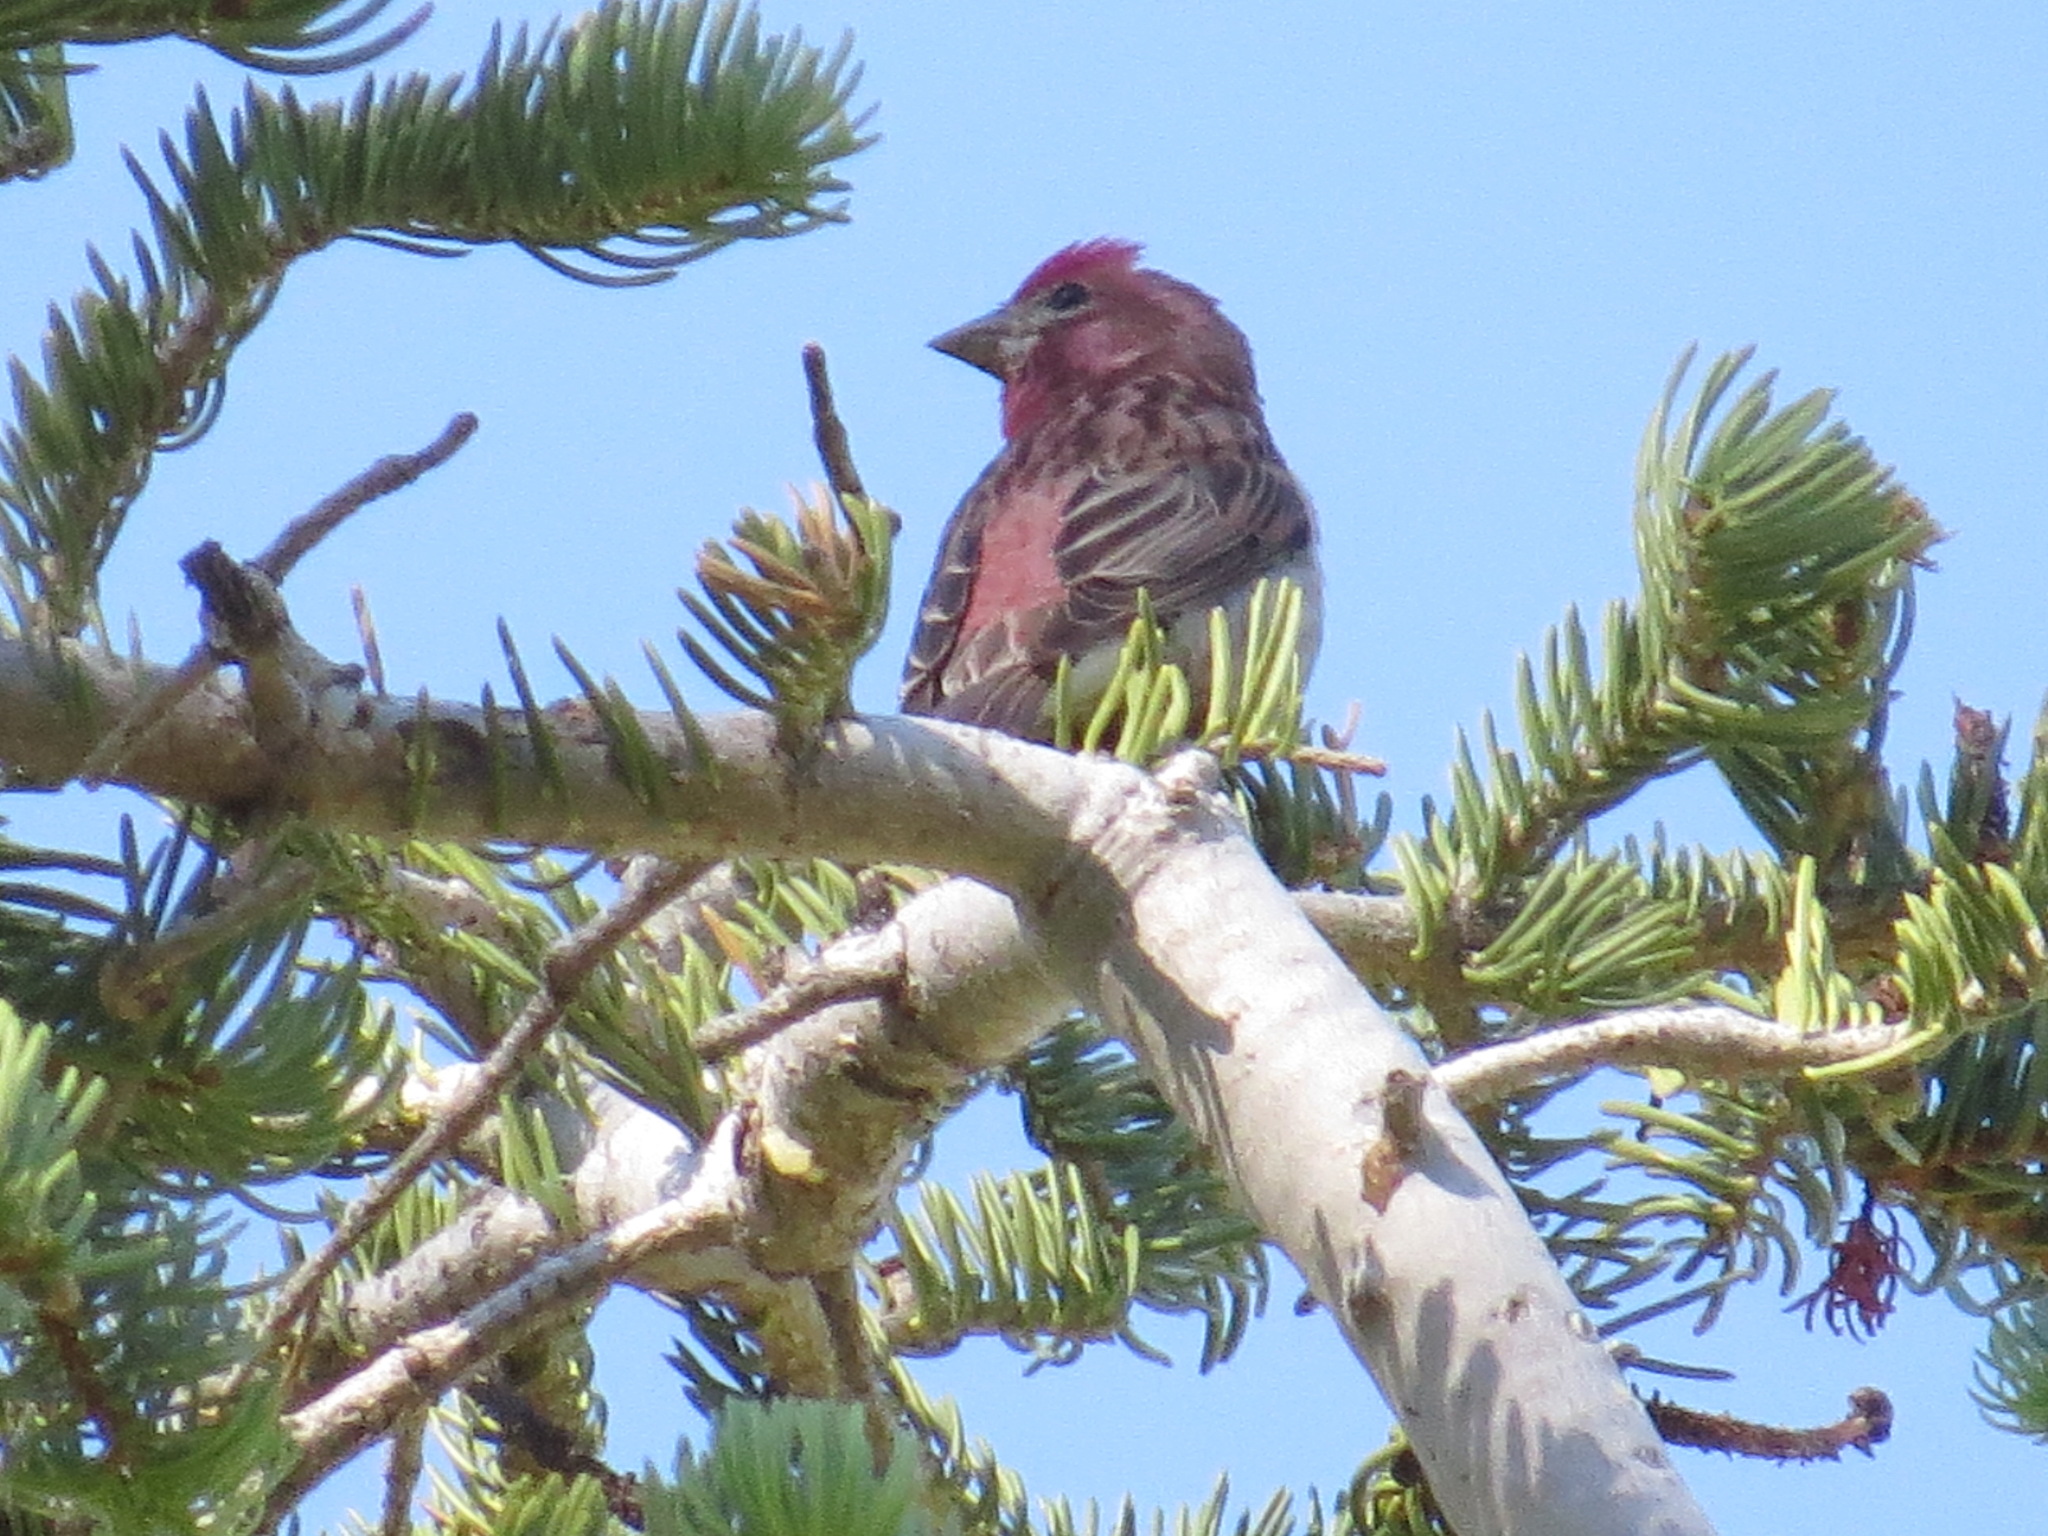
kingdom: Animalia
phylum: Chordata
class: Aves
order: Passeriformes
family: Fringillidae
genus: Haemorhous
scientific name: Haemorhous cassinii
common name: Cassin's finch
